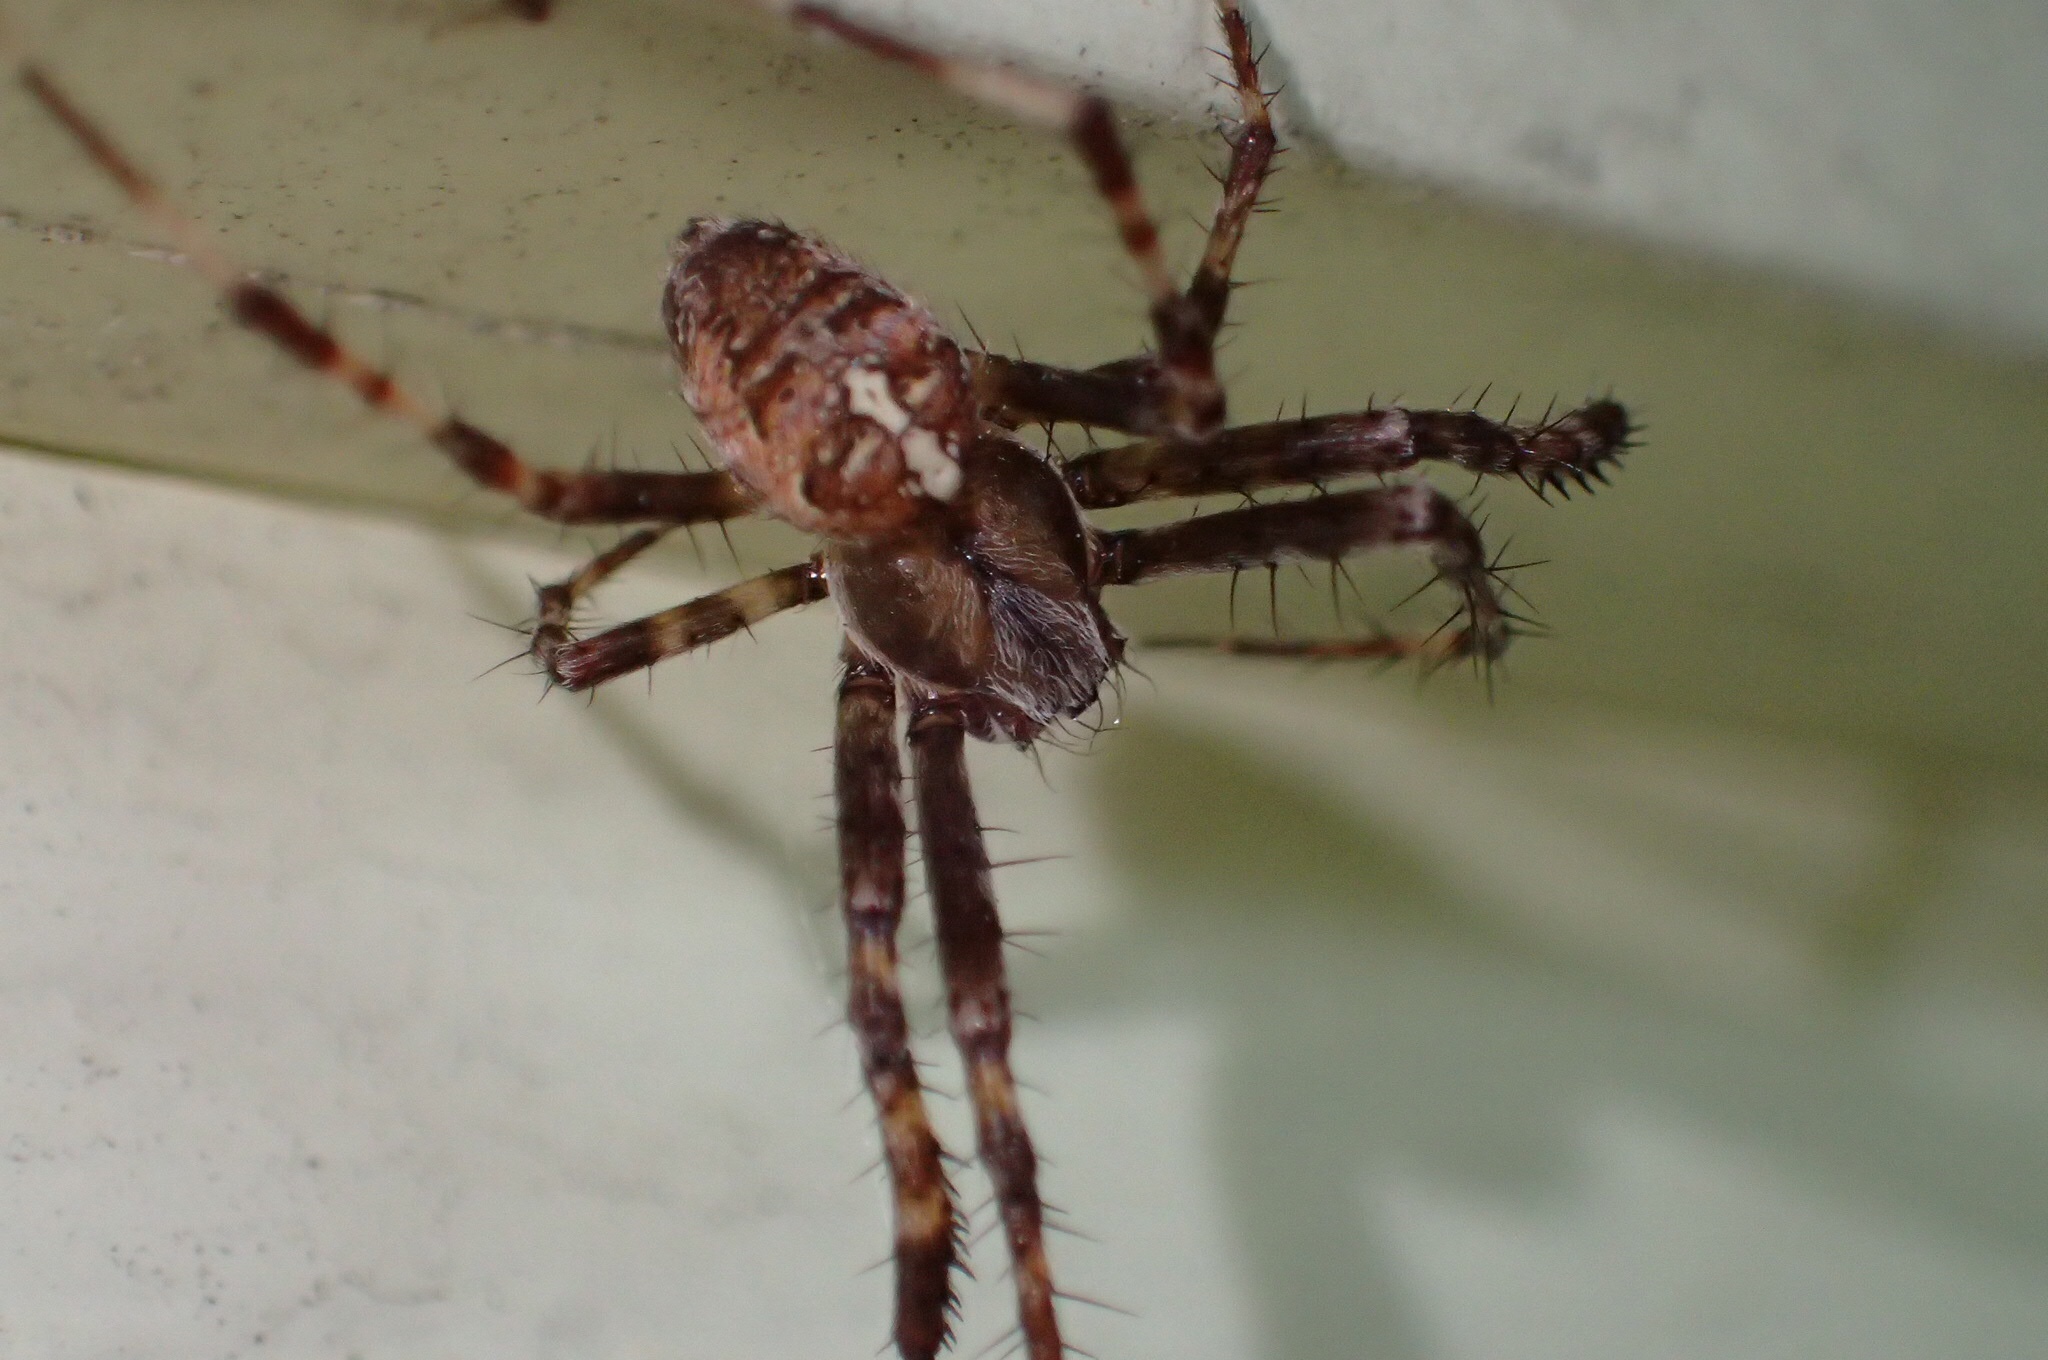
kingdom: Animalia
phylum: Arthropoda
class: Arachnida
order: Araneae
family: Araneidae
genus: Araneus
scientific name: Araneus diadematus
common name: Cross orbweaver
